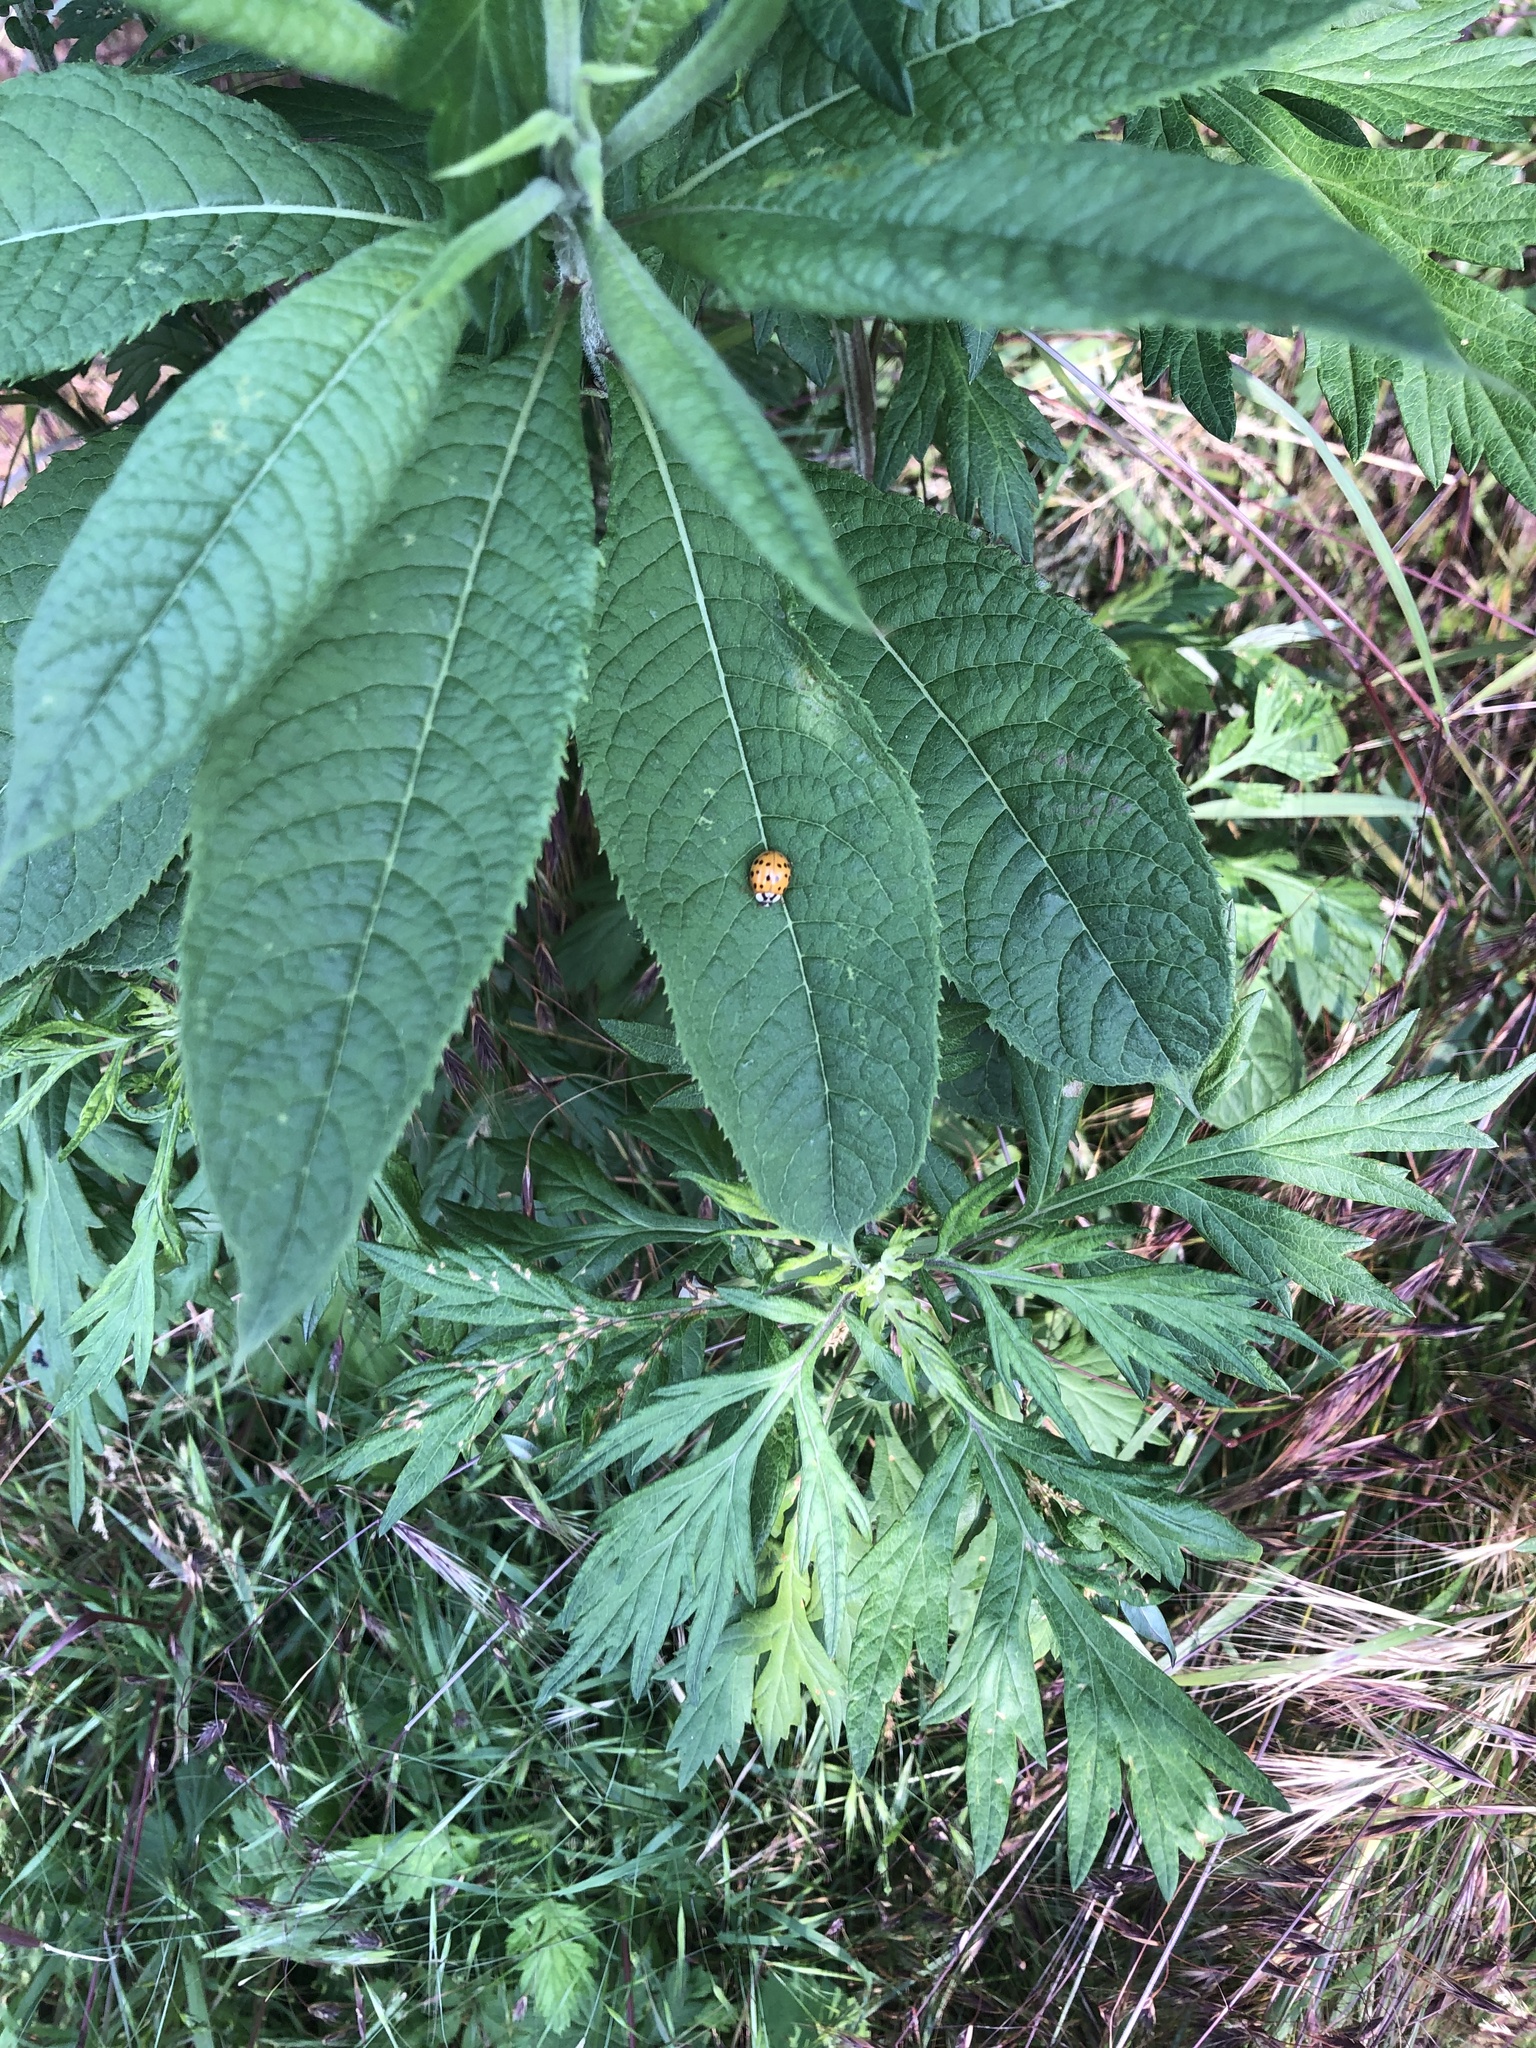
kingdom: Animalia
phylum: Arthropoda
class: Insecta
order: Coleoptera
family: Coccinellidae
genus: Harmonia
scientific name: Harmonia axyridis
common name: Harlequin ladybird
